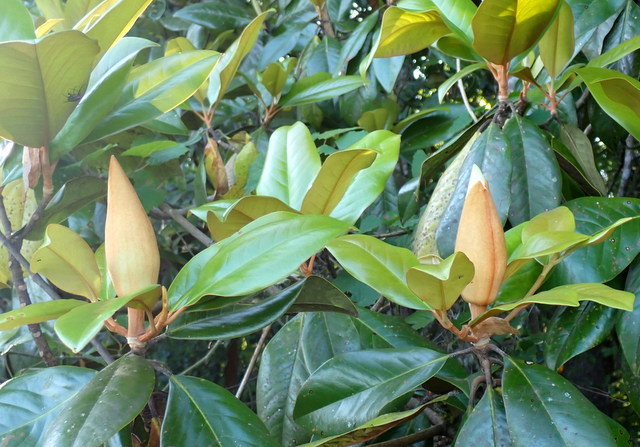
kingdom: Plantae
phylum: Tracheophyta
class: Magnoliopsida
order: Magnoliales
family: Magnoliaceae
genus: Magnolia
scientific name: Magnolia grandiflora
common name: Southern magnolia
